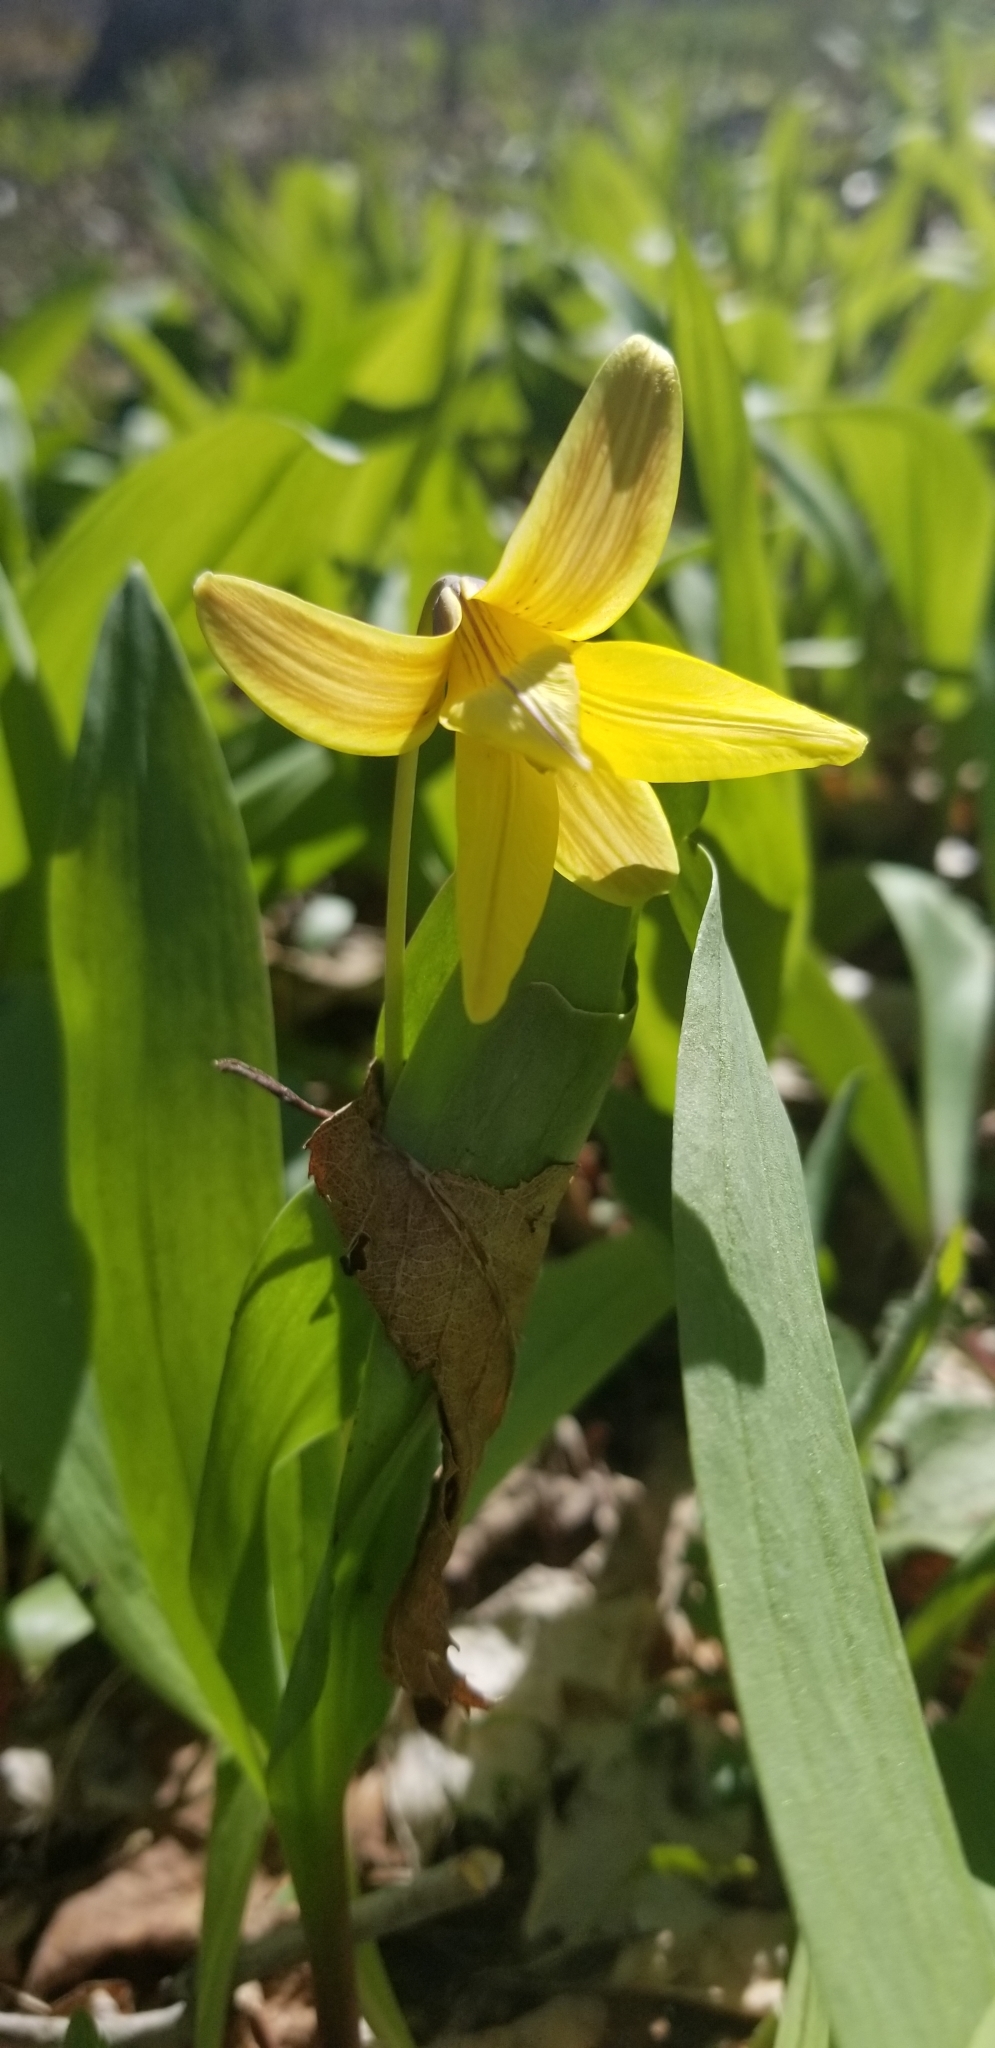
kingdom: Plantae
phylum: Tracheophyta
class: Liliopsida
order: Liliales
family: Liliaceae
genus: Erythronium
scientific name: Erythronium americanum
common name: Yellow adder's-tongue
